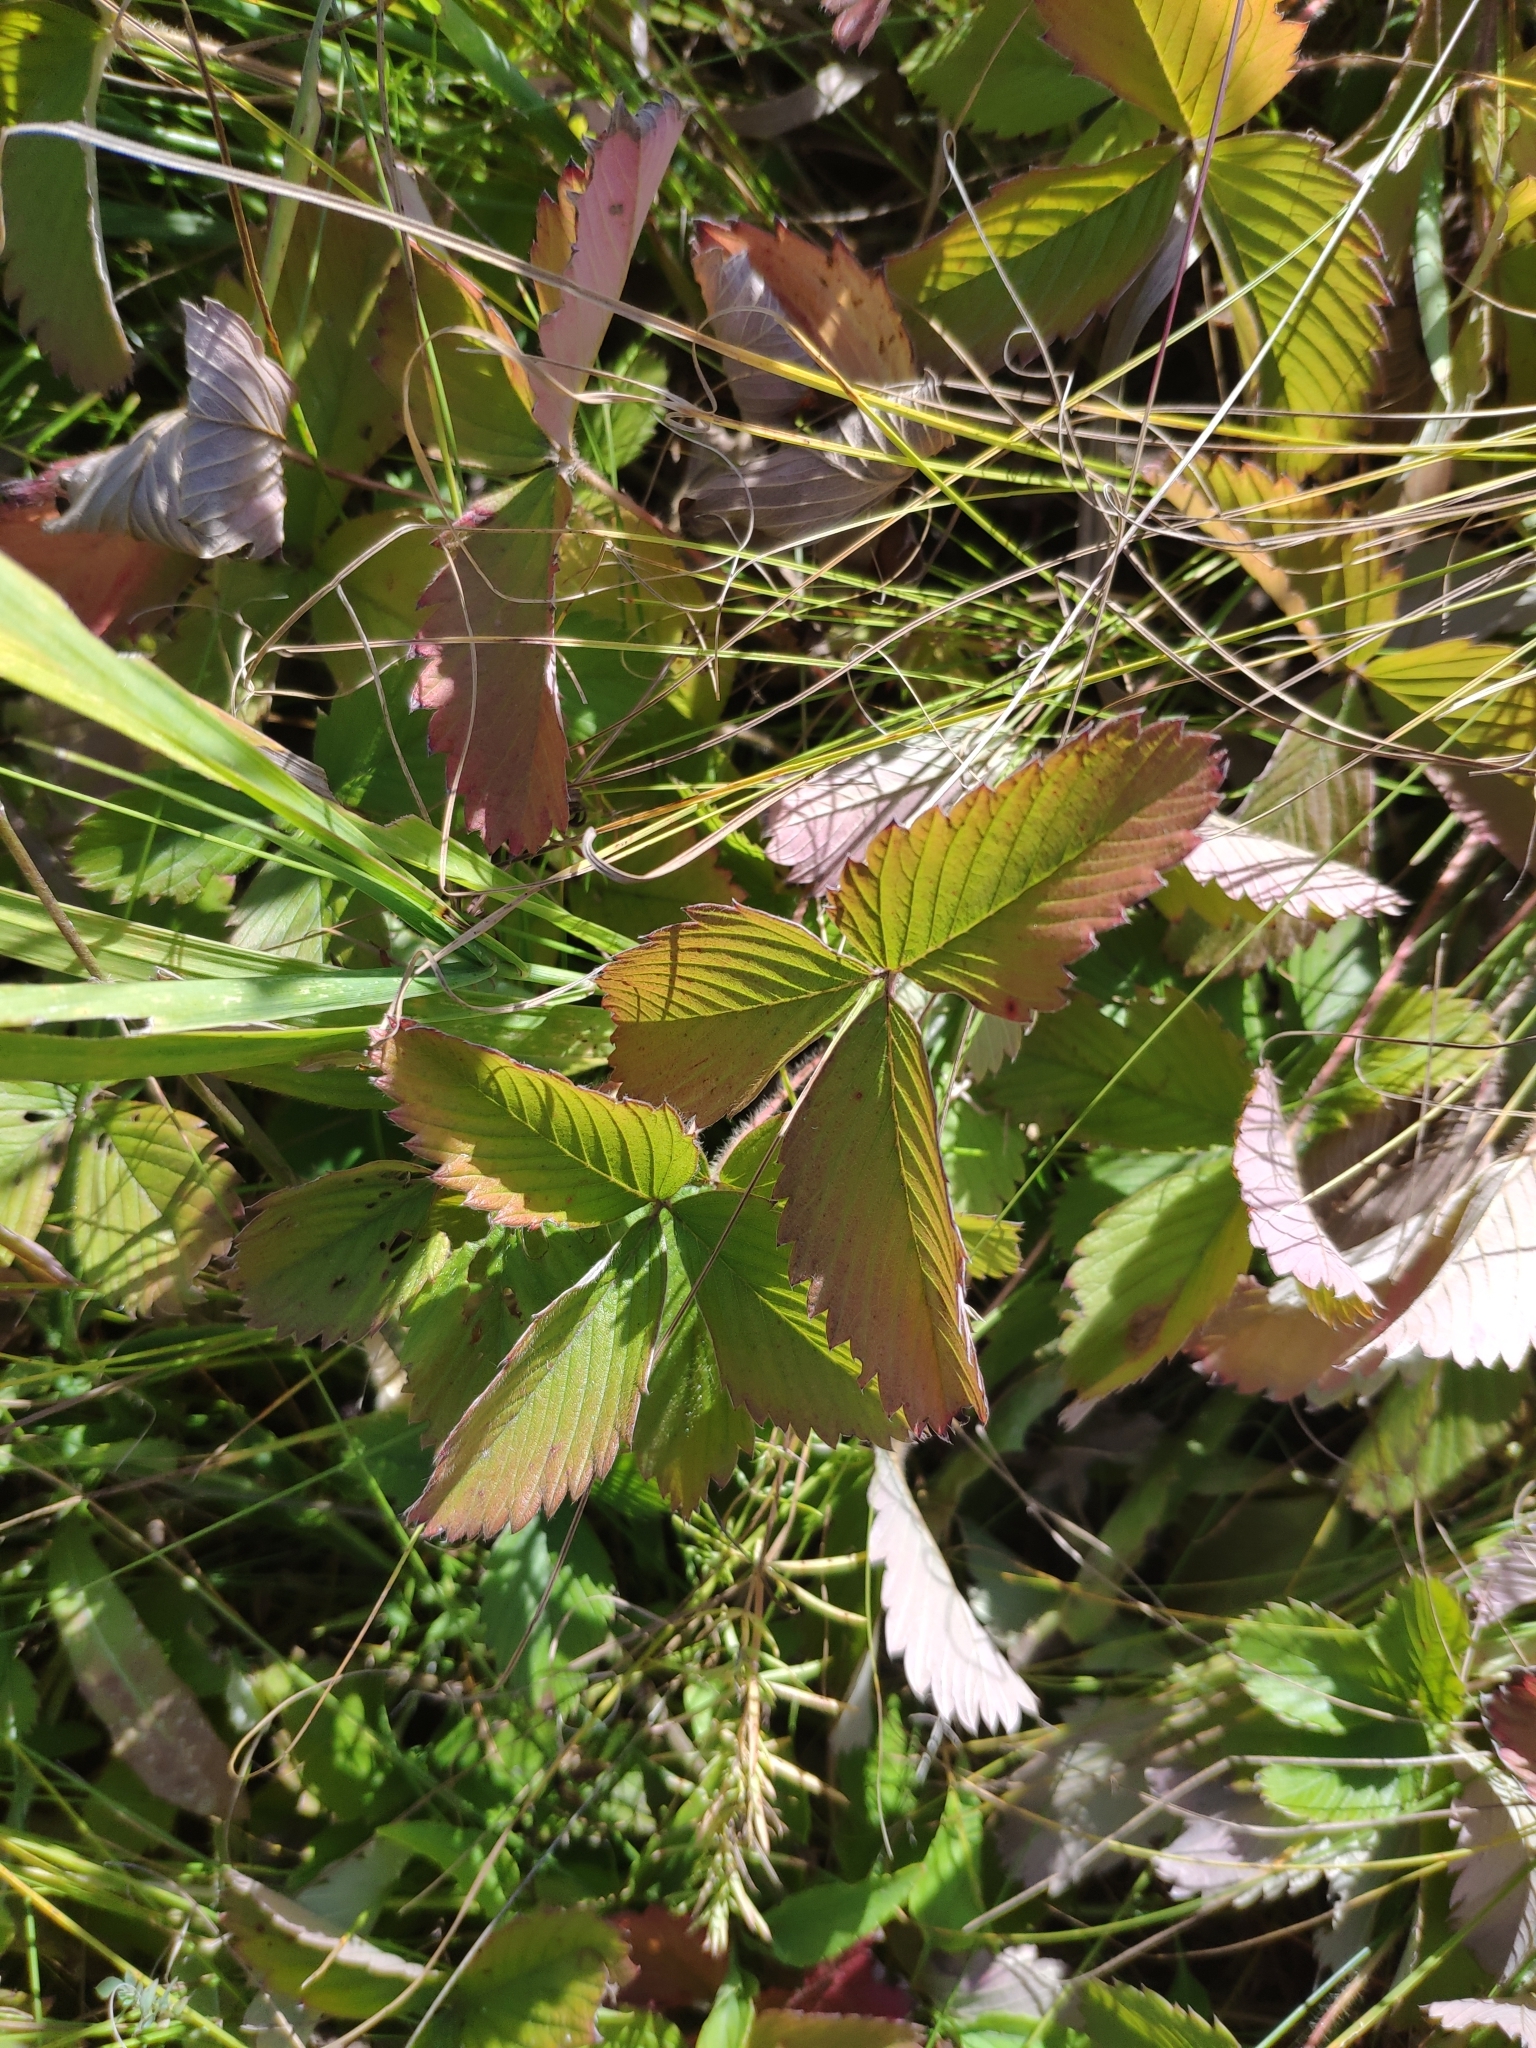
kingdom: Plantae
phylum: Tracheophyta
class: Magnoliopsida
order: Rosales
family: Rosaceae
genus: Fragaria
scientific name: Fragaria viridis
